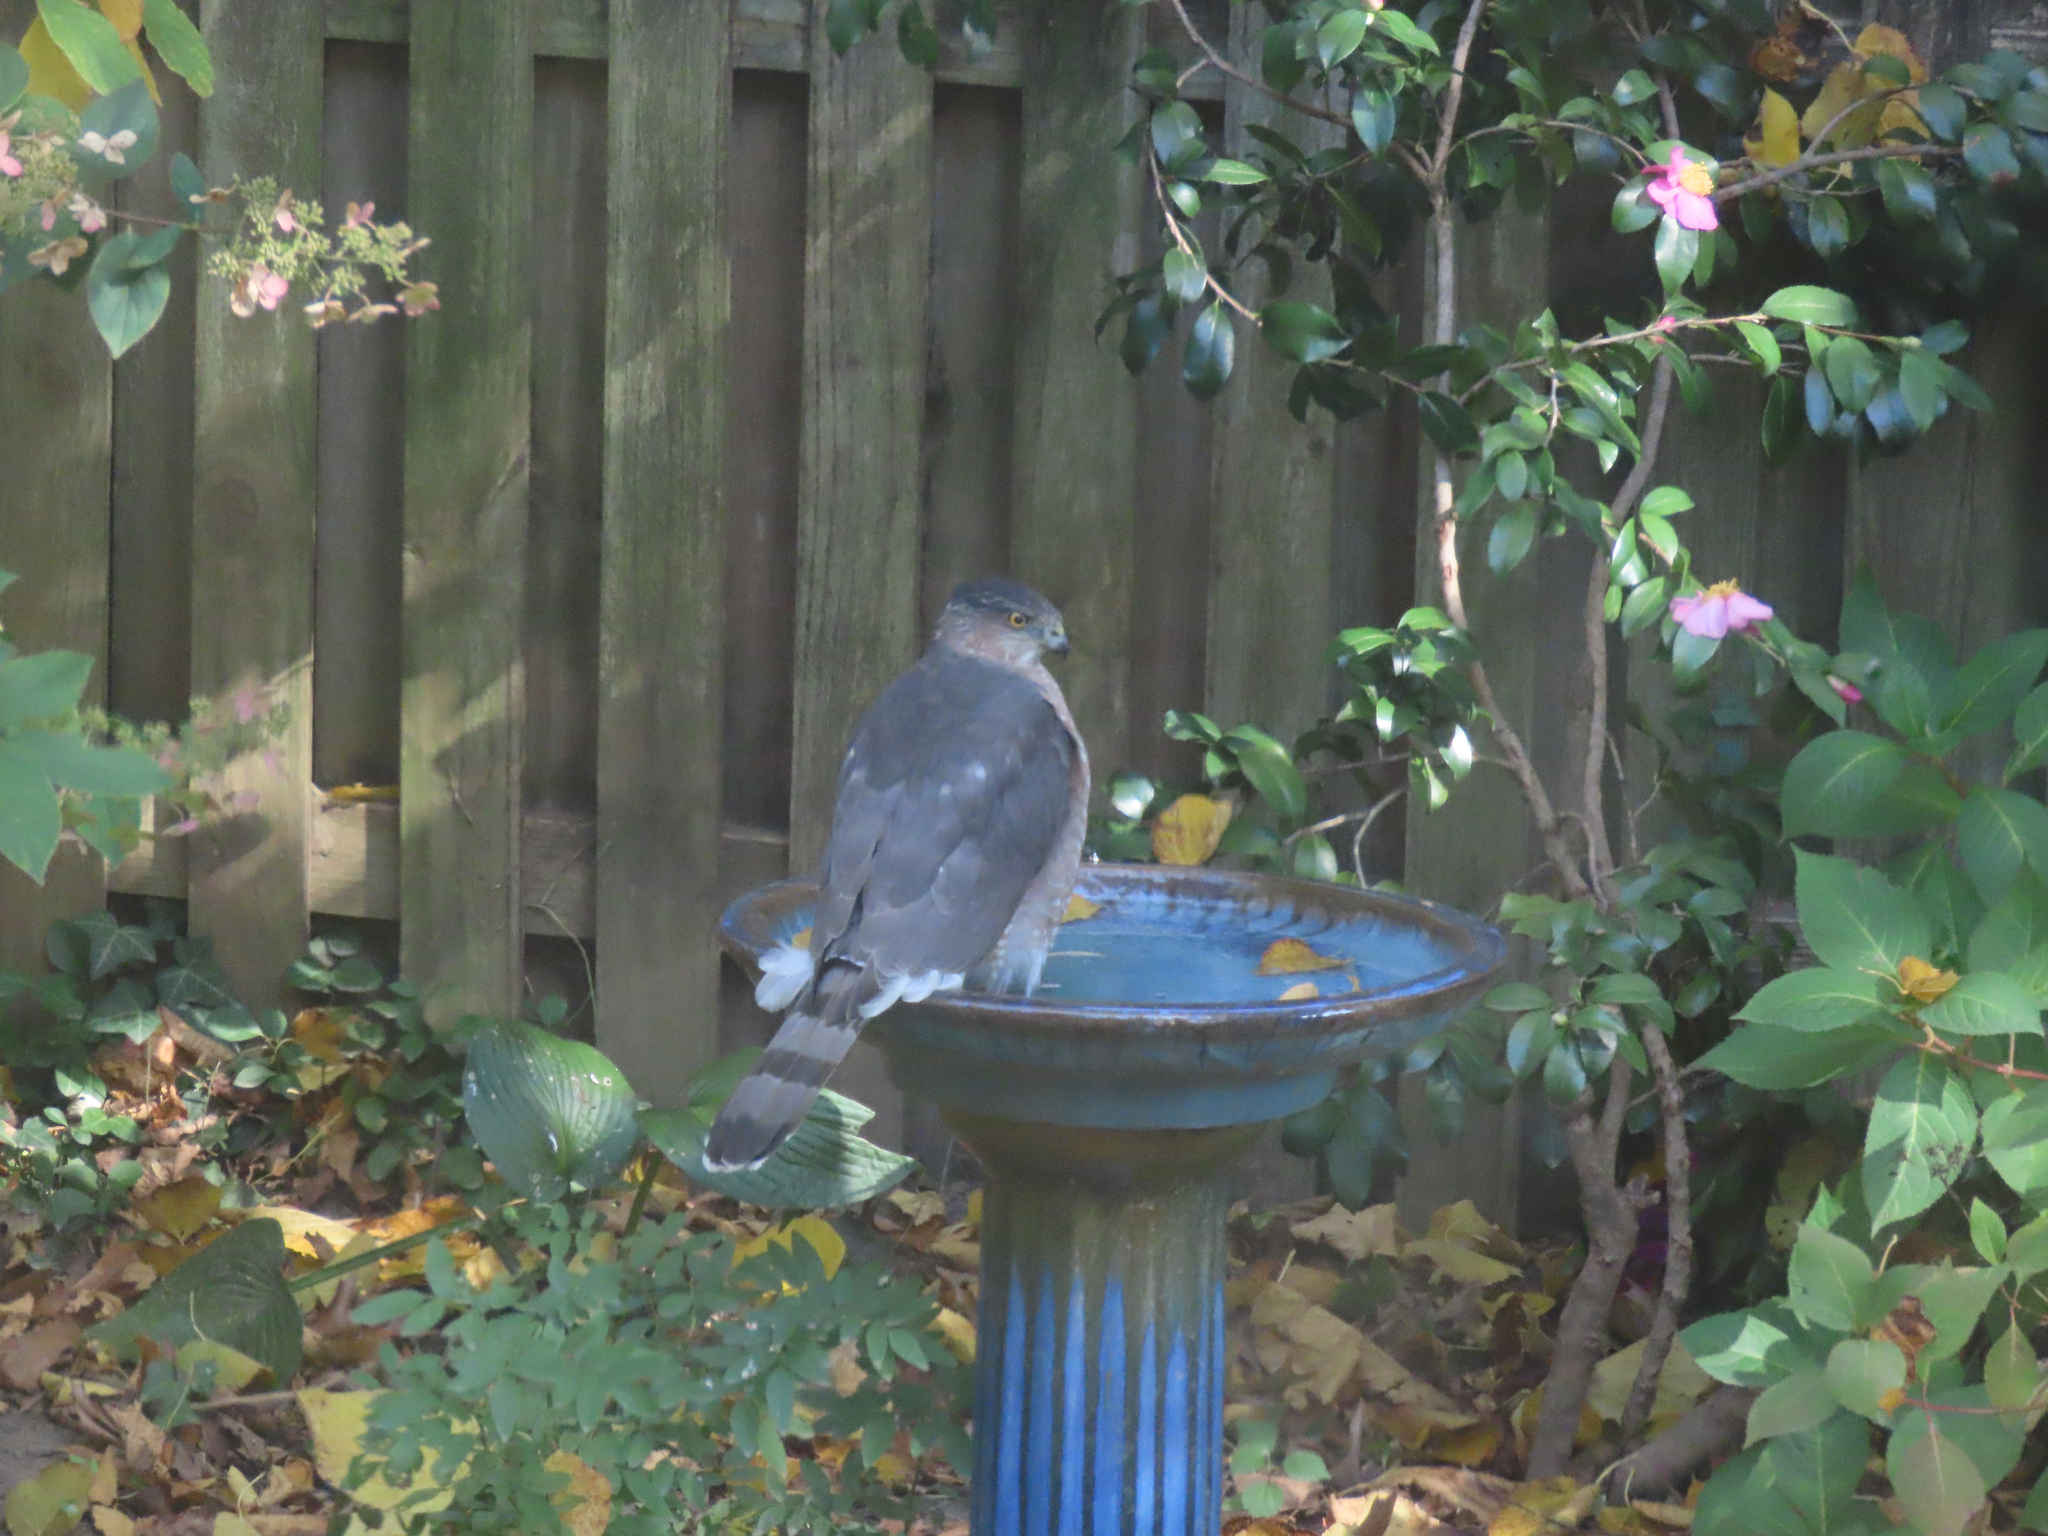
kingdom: Animalia
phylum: Chordata
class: Aves
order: Accipitriformes
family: Accipitridae
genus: Accipiter
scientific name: Accipiter cooperii
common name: Cooper's hawk
